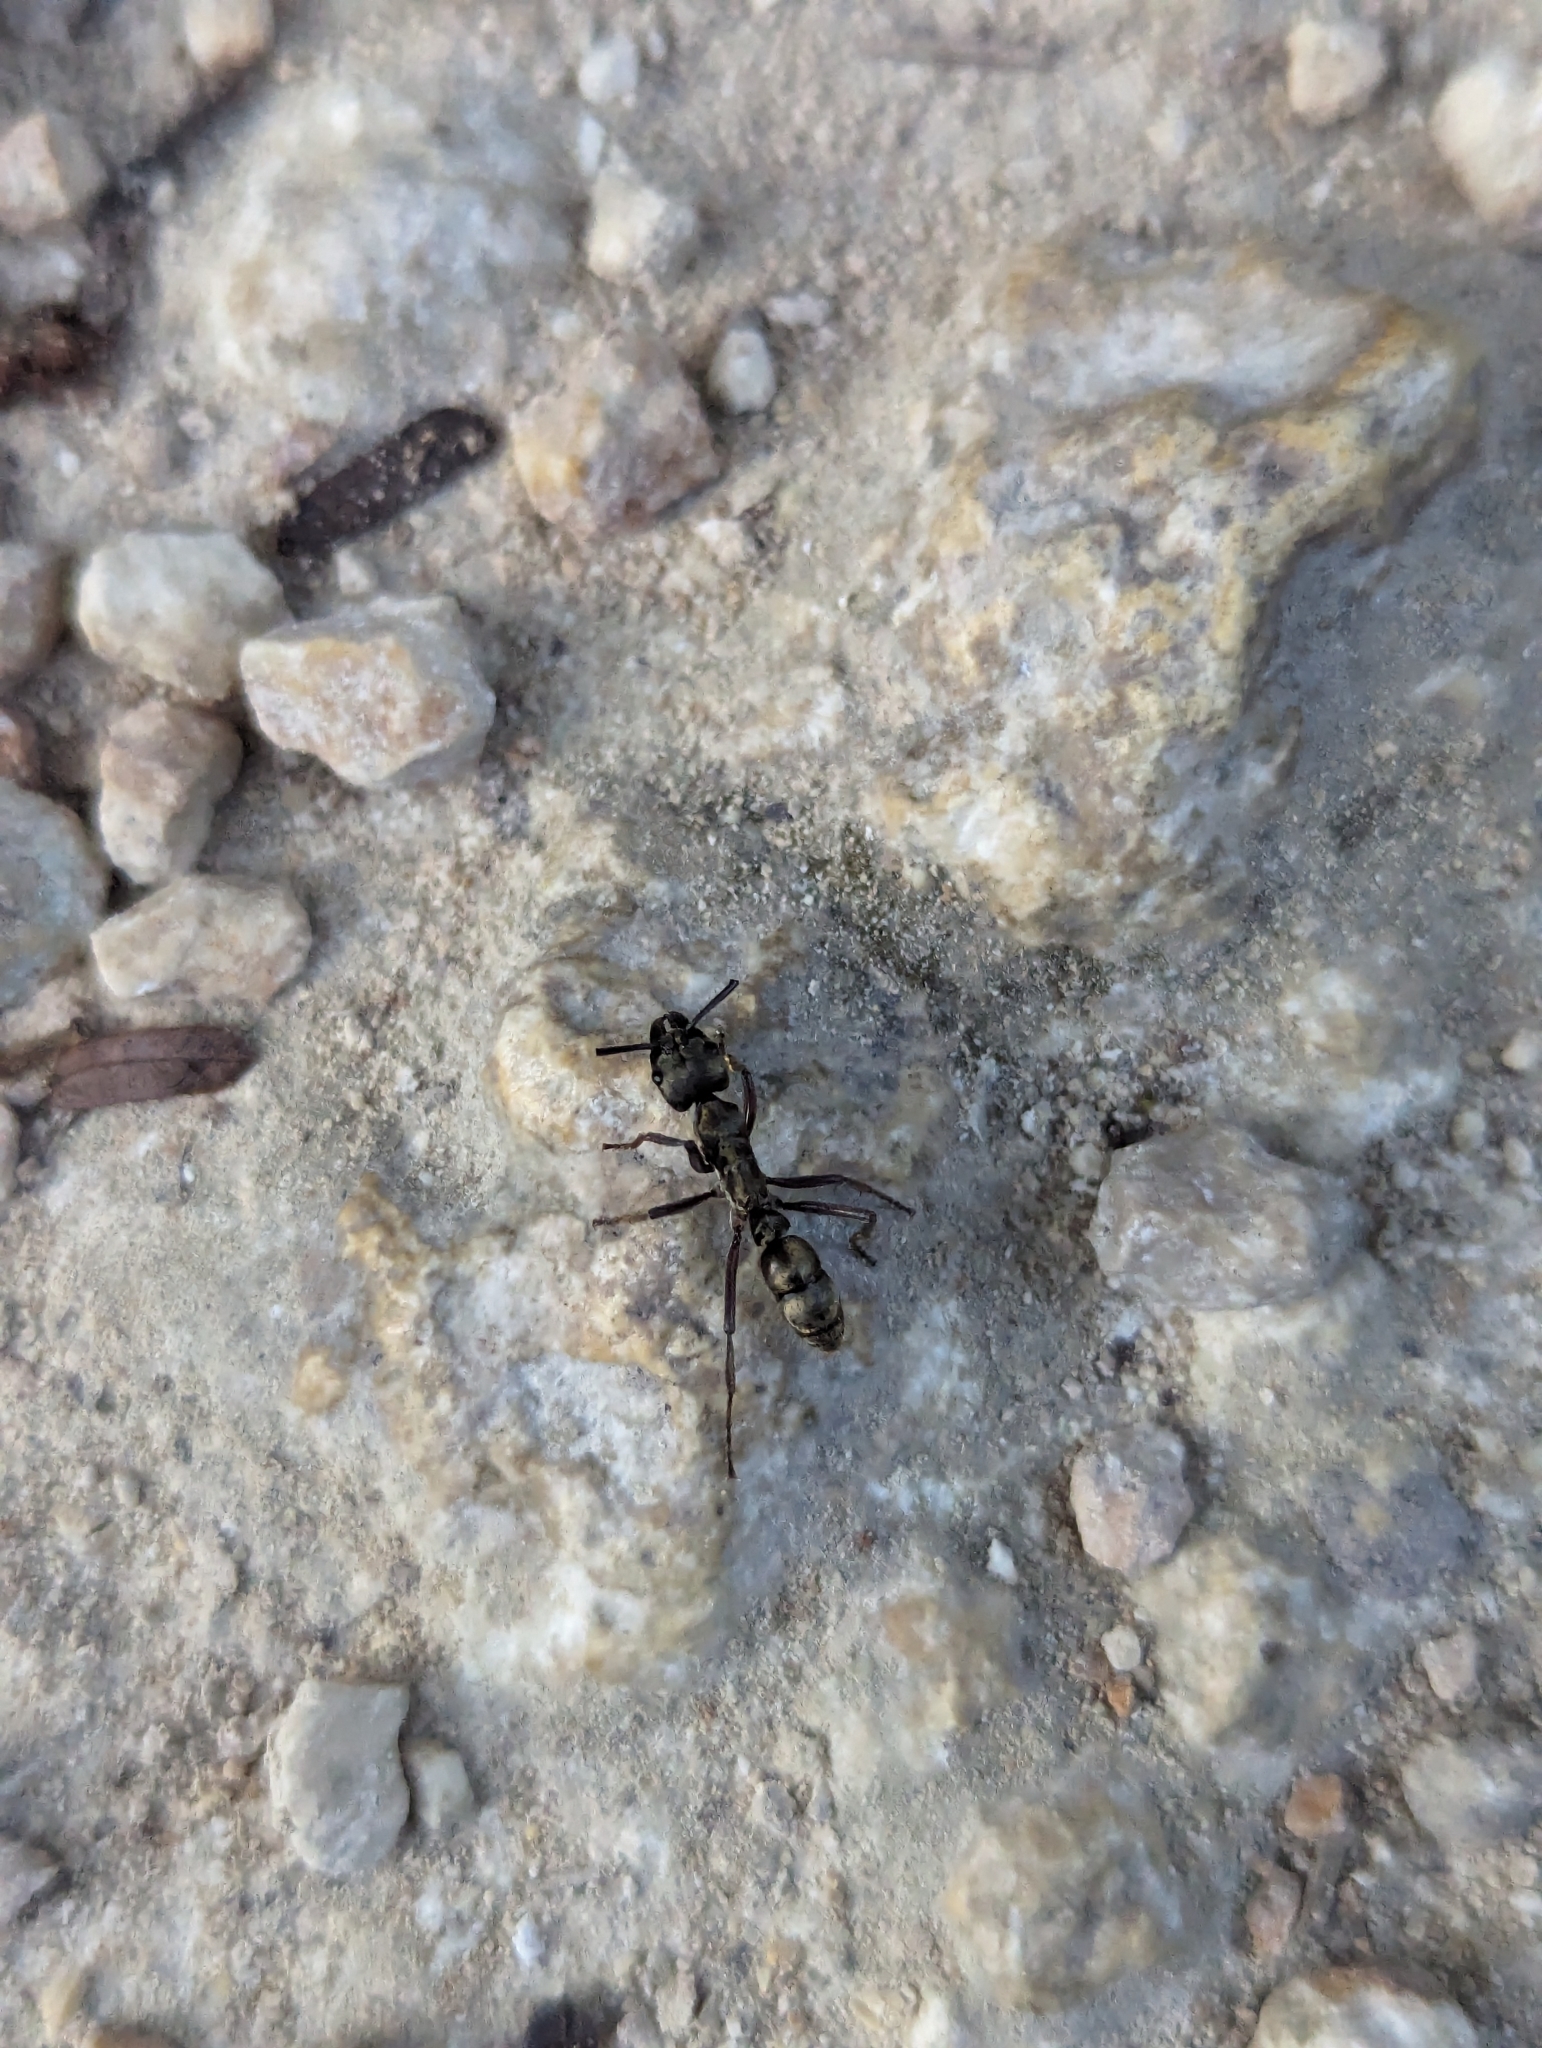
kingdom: Animalia
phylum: Arthropoda
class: Insecta
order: Hymenoptera
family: Formicidae
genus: Pachycondyla
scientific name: Pachycondyla villosa
